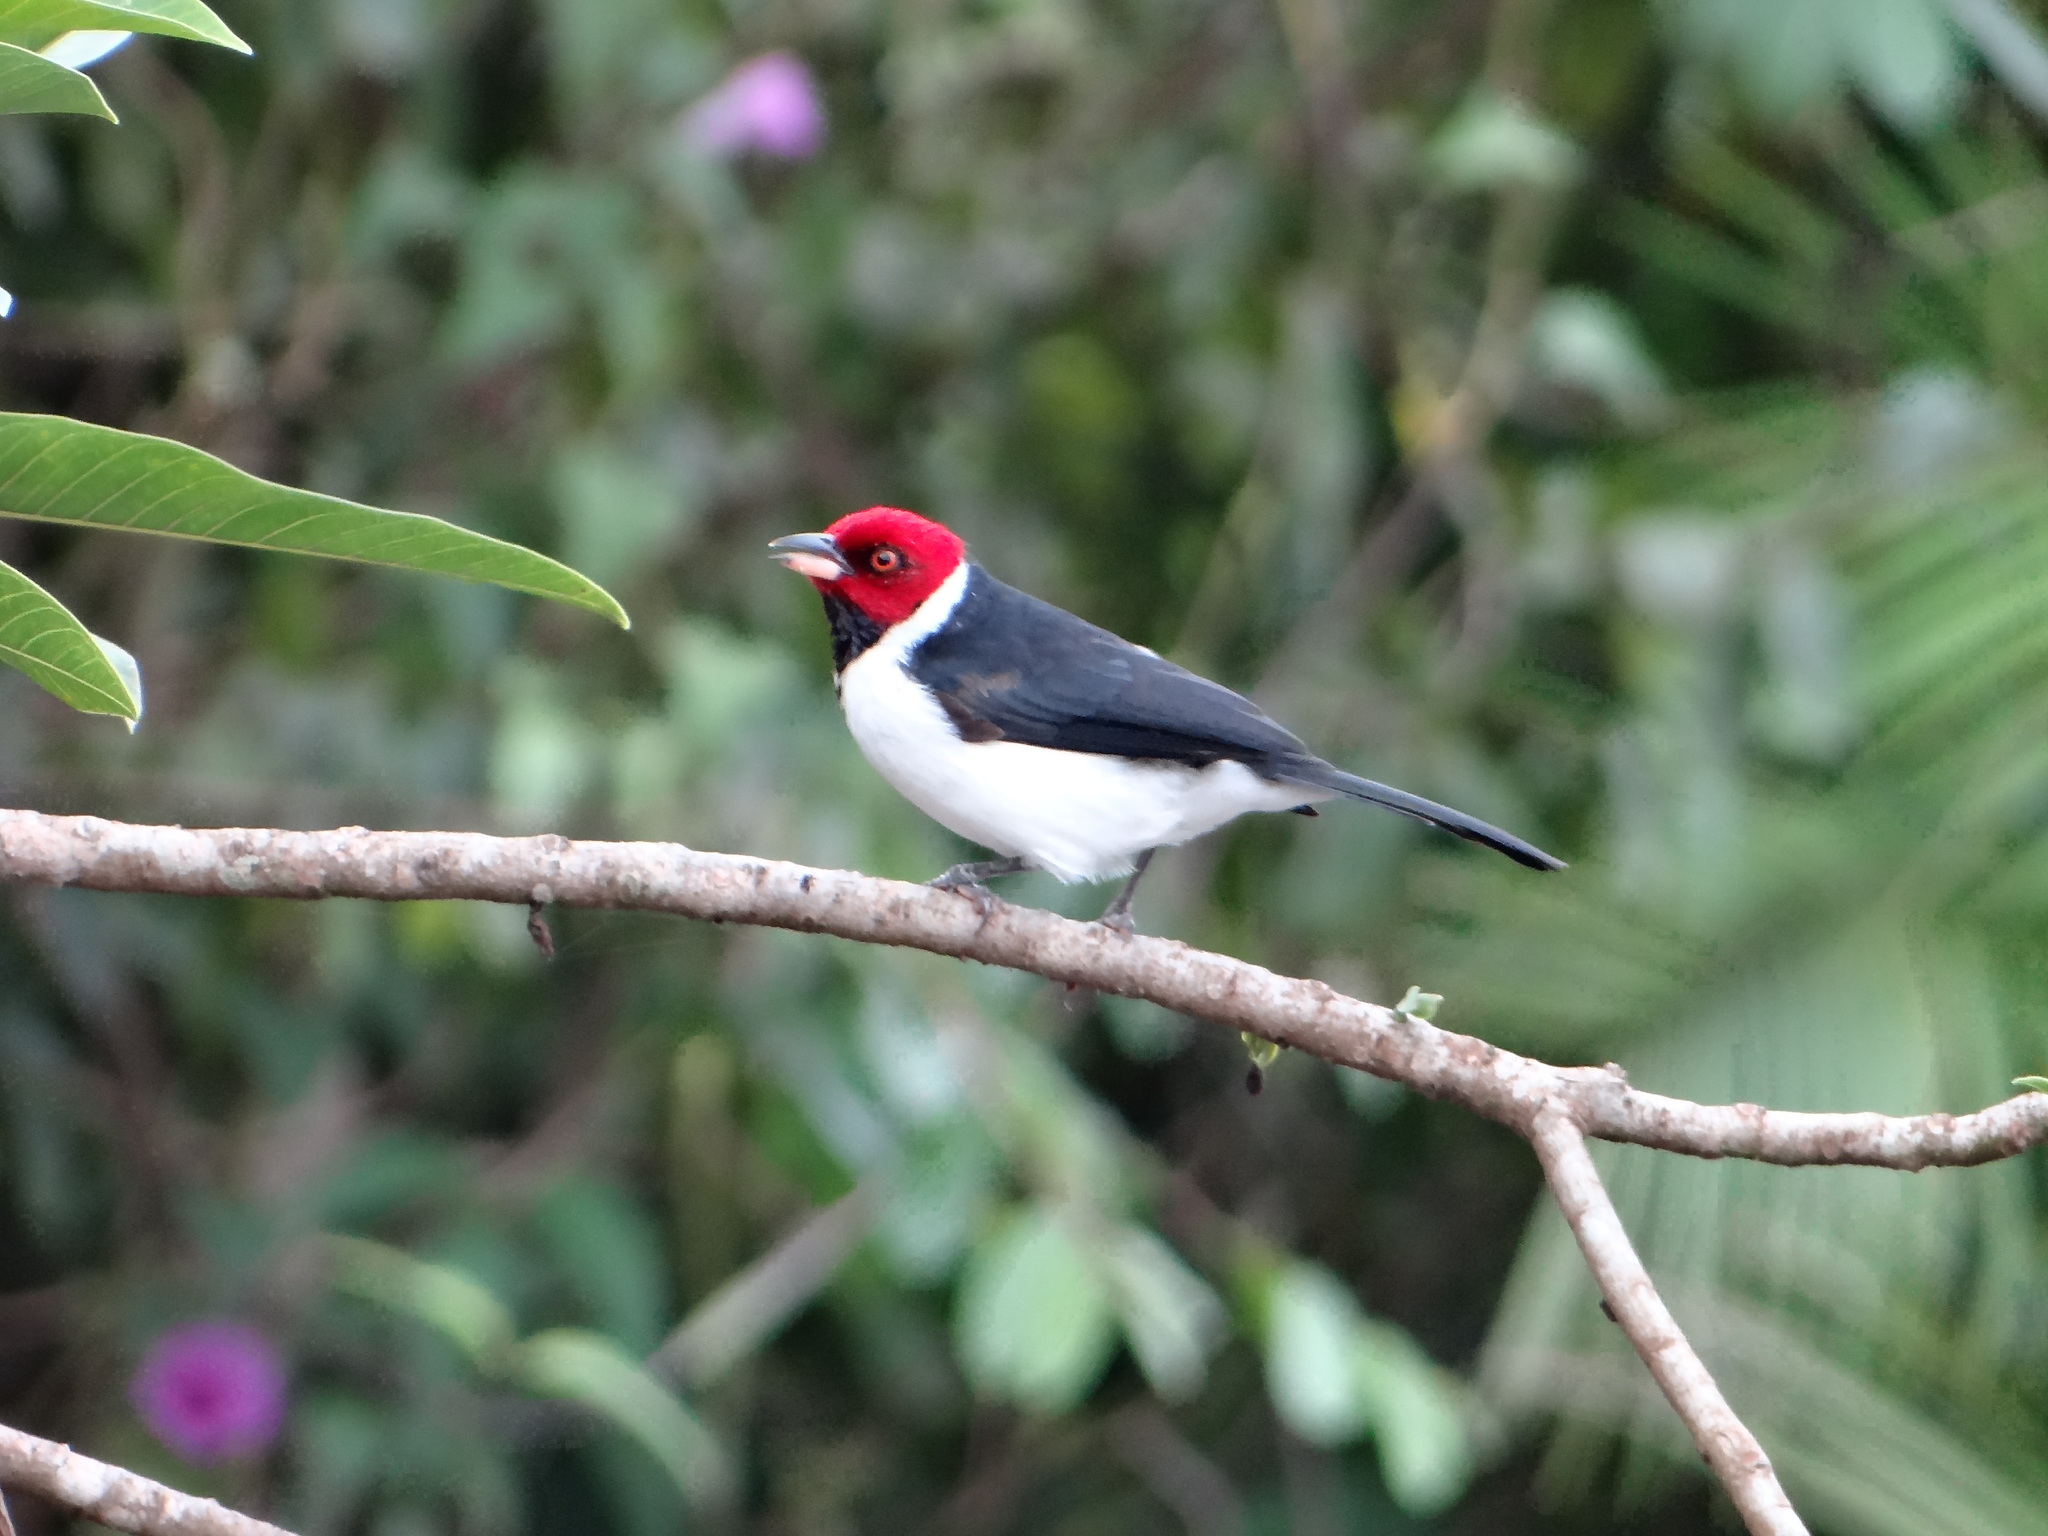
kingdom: Animalia
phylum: Chordata
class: Aves
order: Passeriformes
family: Thraupidae
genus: Paroaria
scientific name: Paroaria gularis
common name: Red-capped cardinal
